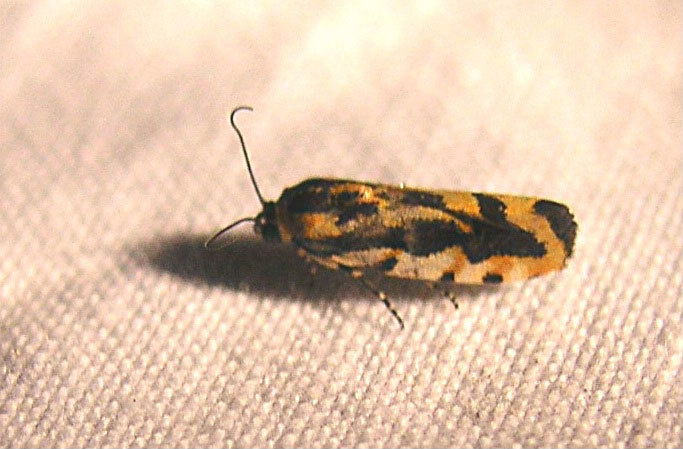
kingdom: Animalia
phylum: Arthropoda
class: Insecta
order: Lepidoptera
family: Noctuidae
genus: Acontia
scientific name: Acontia leo
